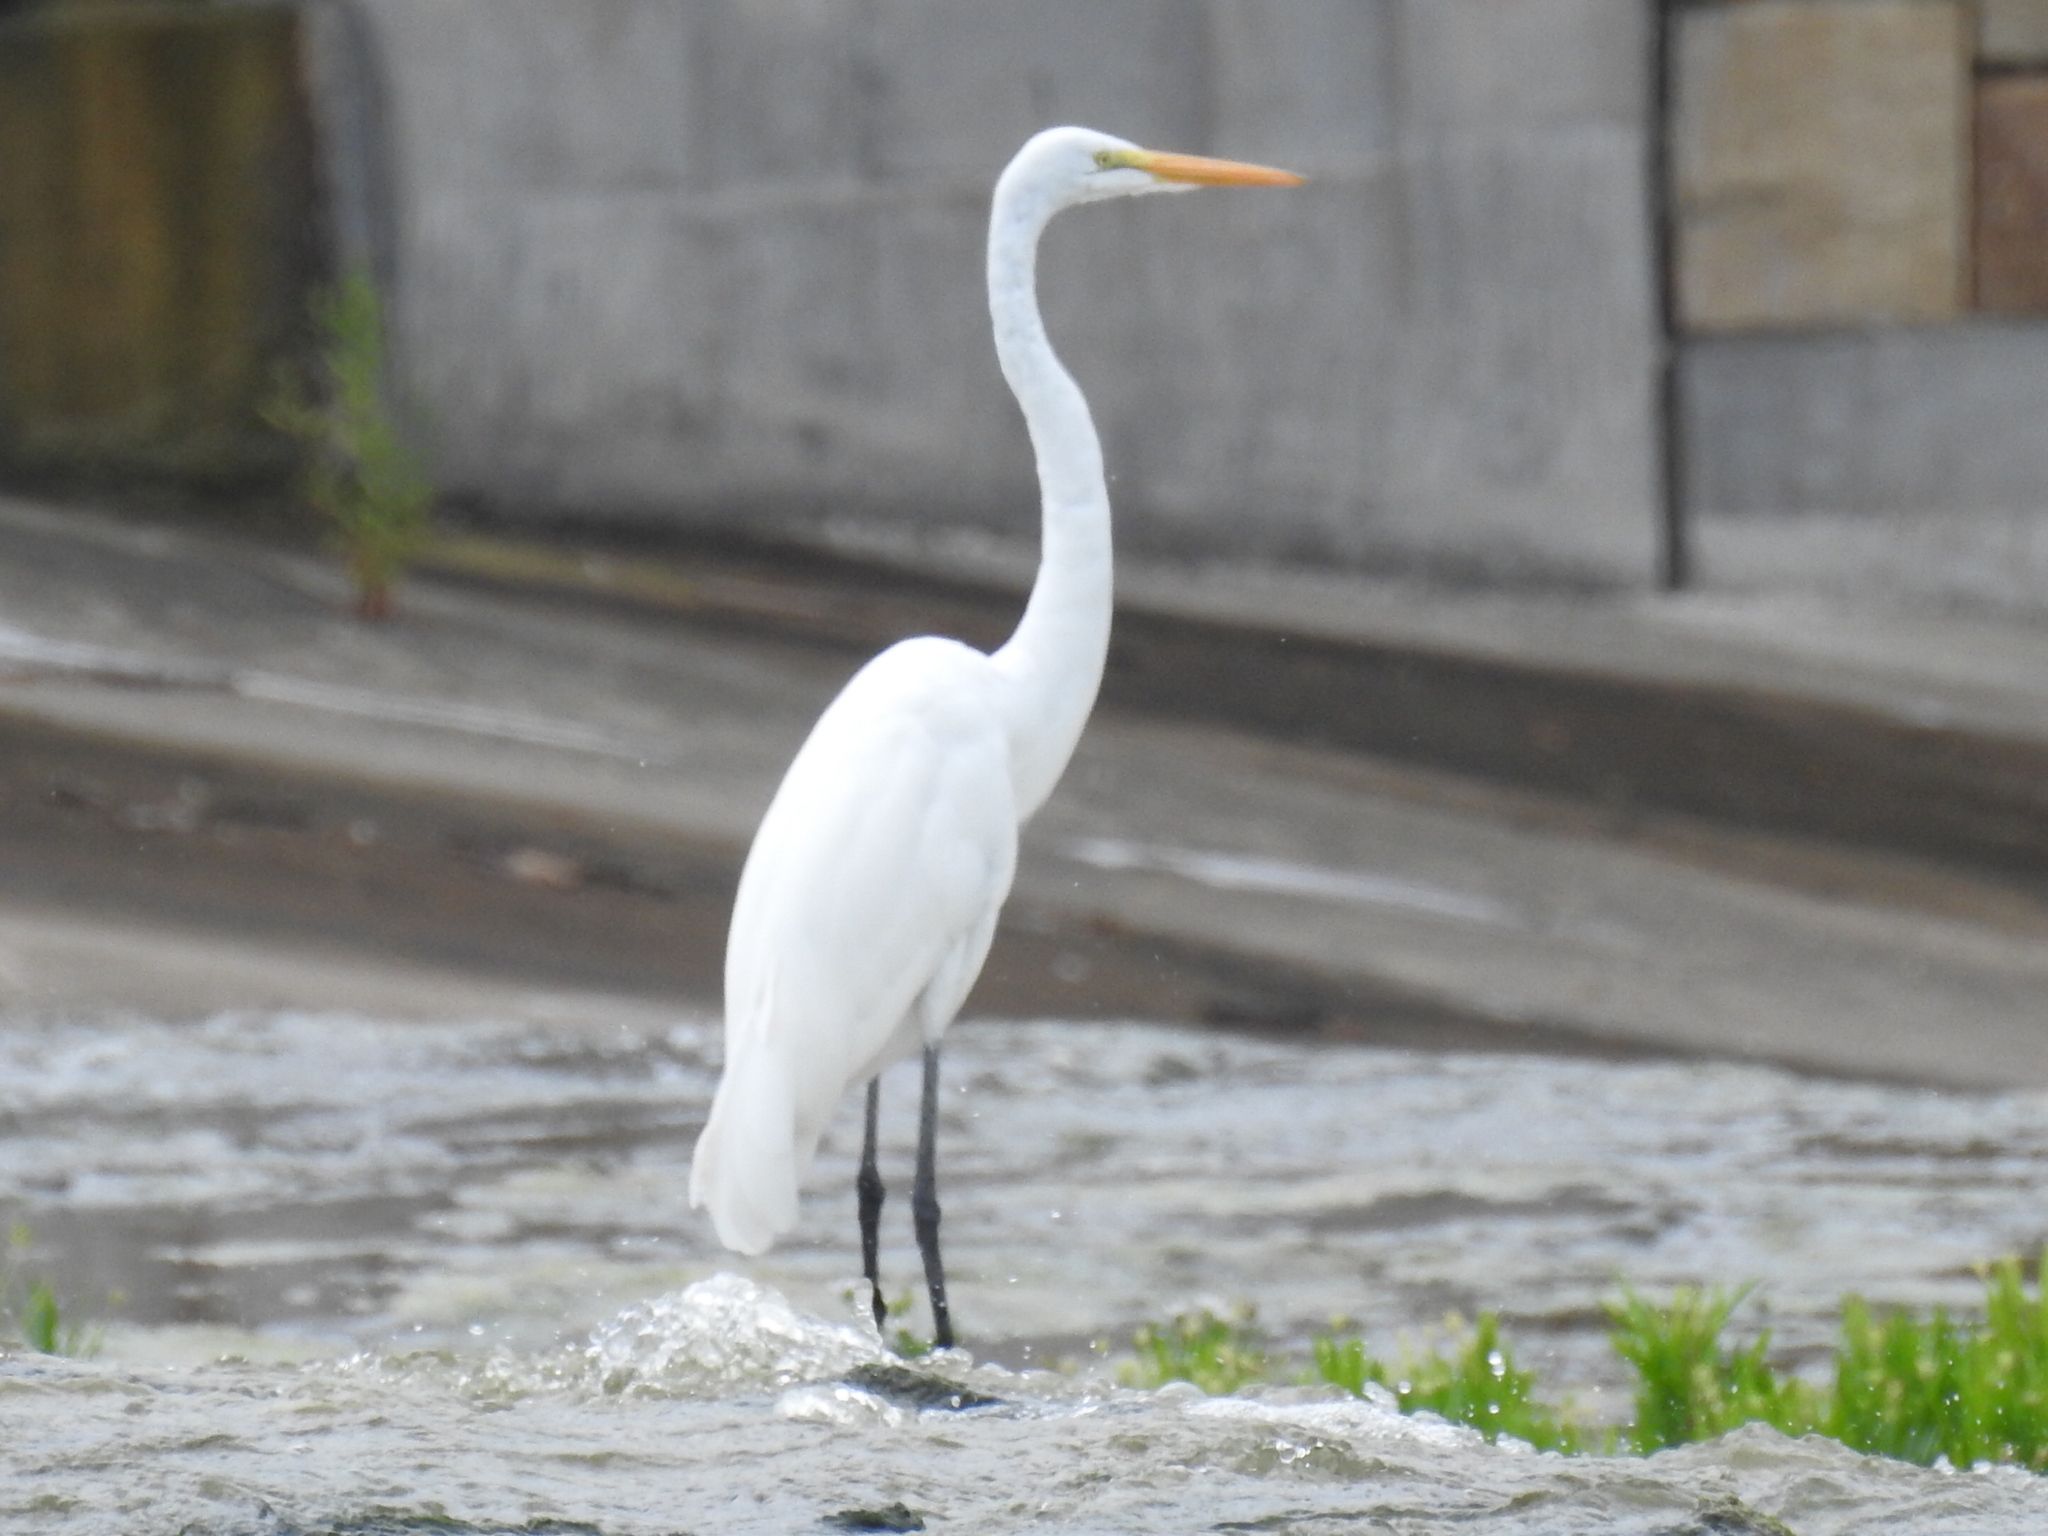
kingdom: Animalia
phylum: Chordata
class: Aves
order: Pelecaniformes
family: Ardeidae
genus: Ardea
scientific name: Ardea alba
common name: Great egret
